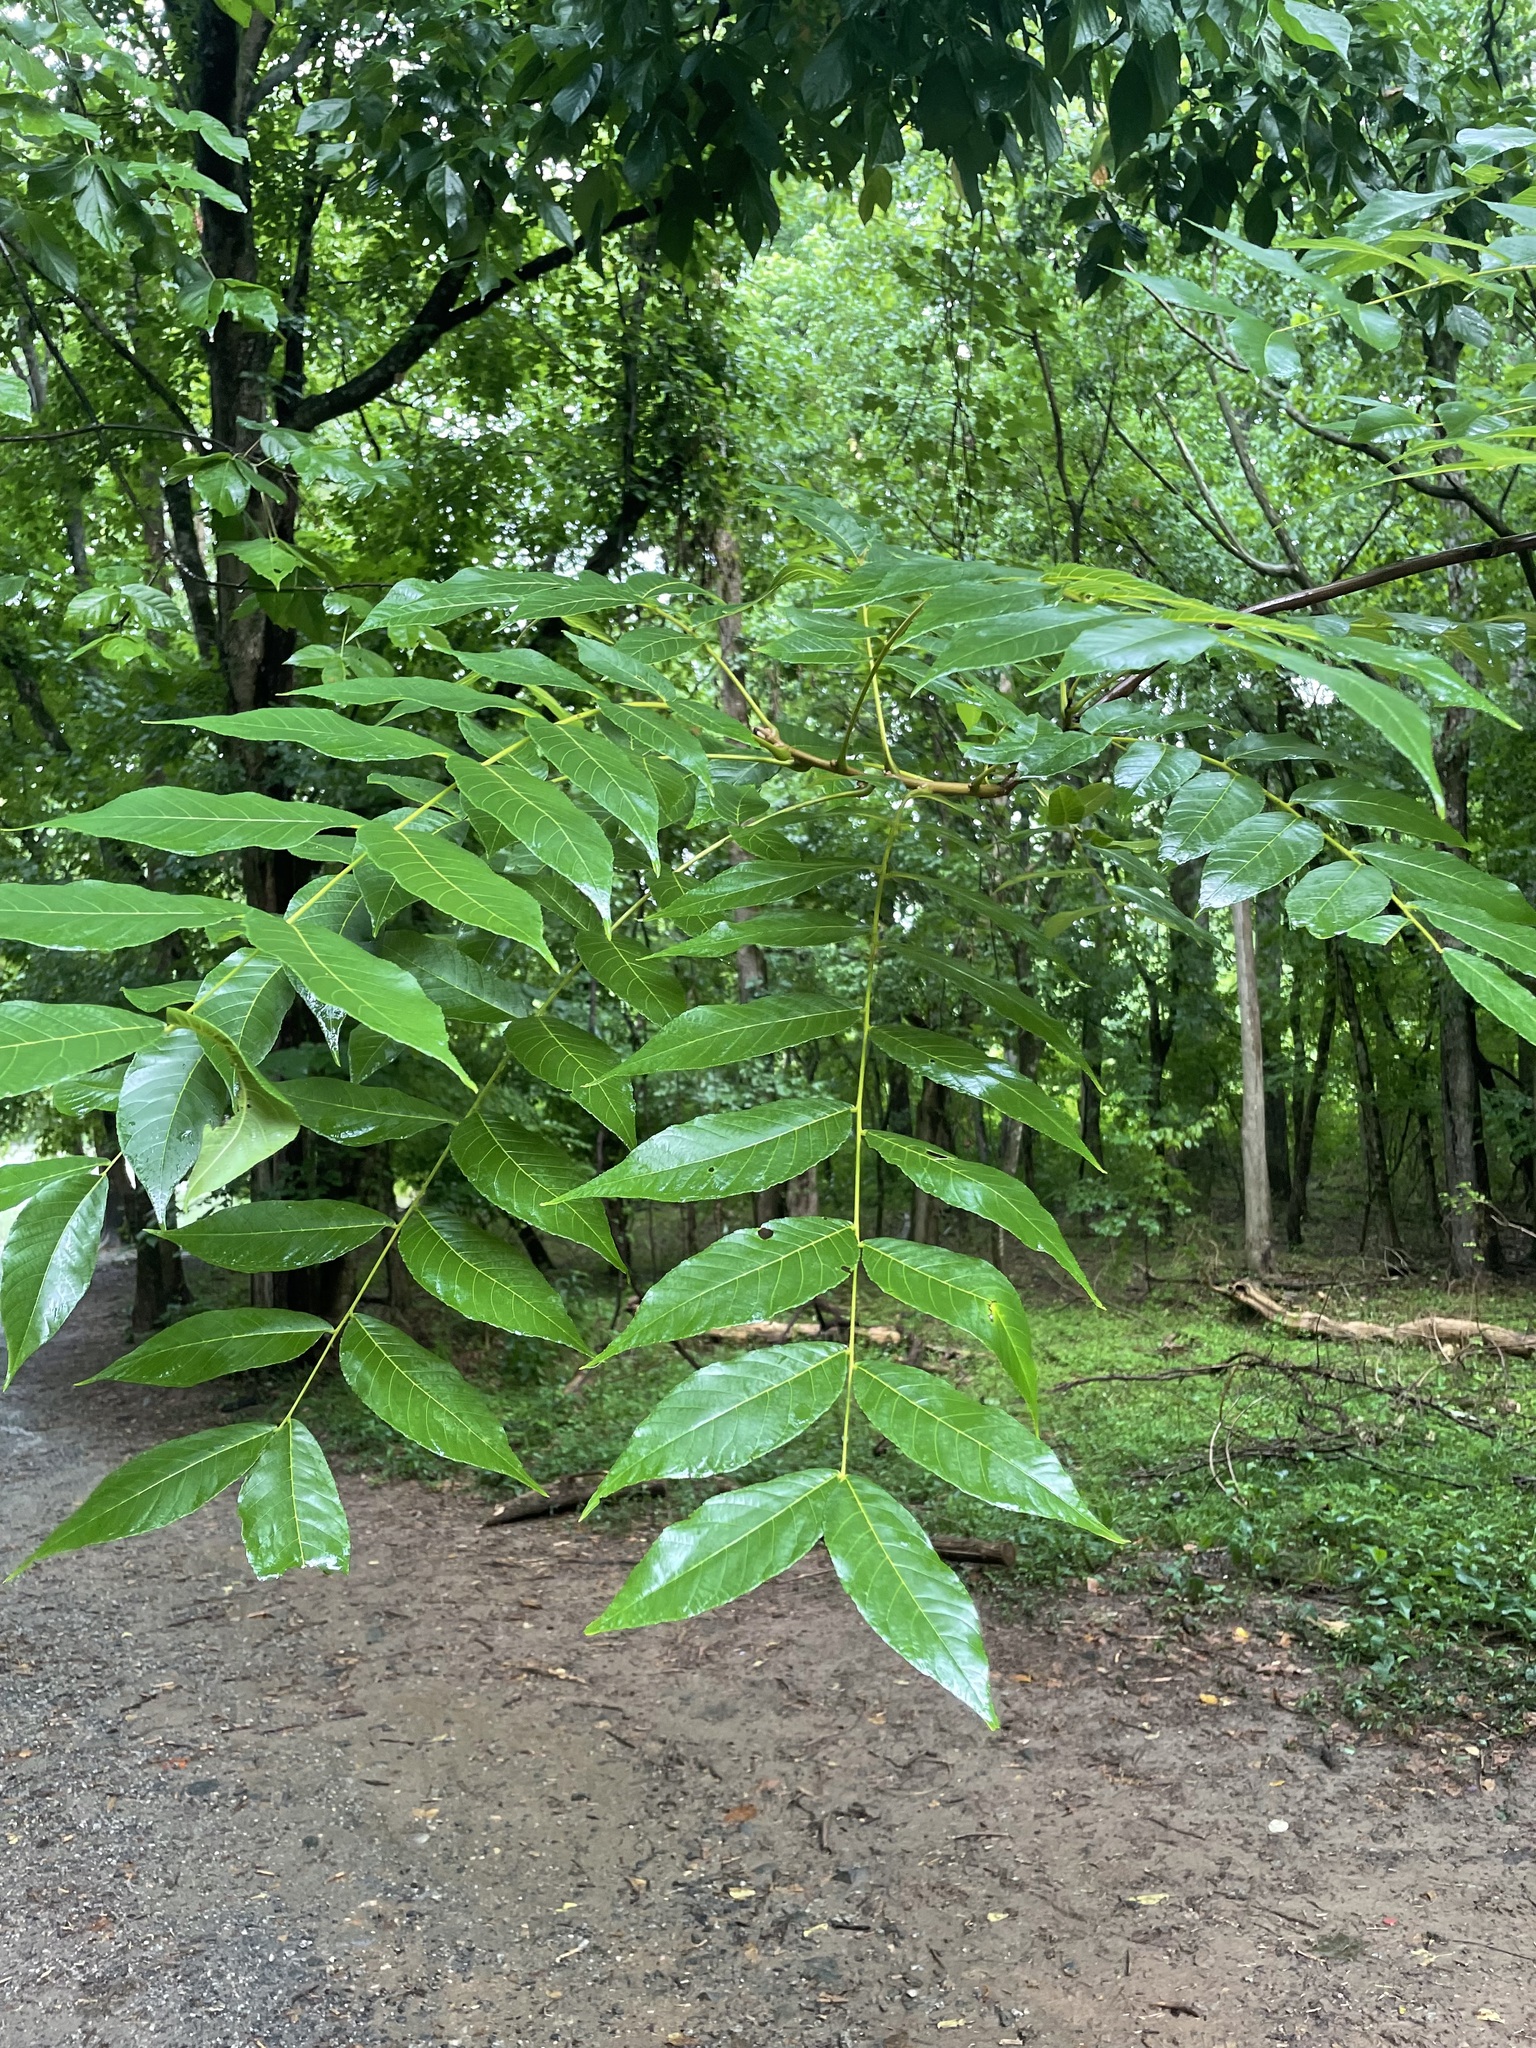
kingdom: Plantae
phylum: Tracheophyta
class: Magnoliopsida
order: Fagales
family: Juglandaceae
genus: Juglans
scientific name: Juglans nigra
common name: Black walnut
